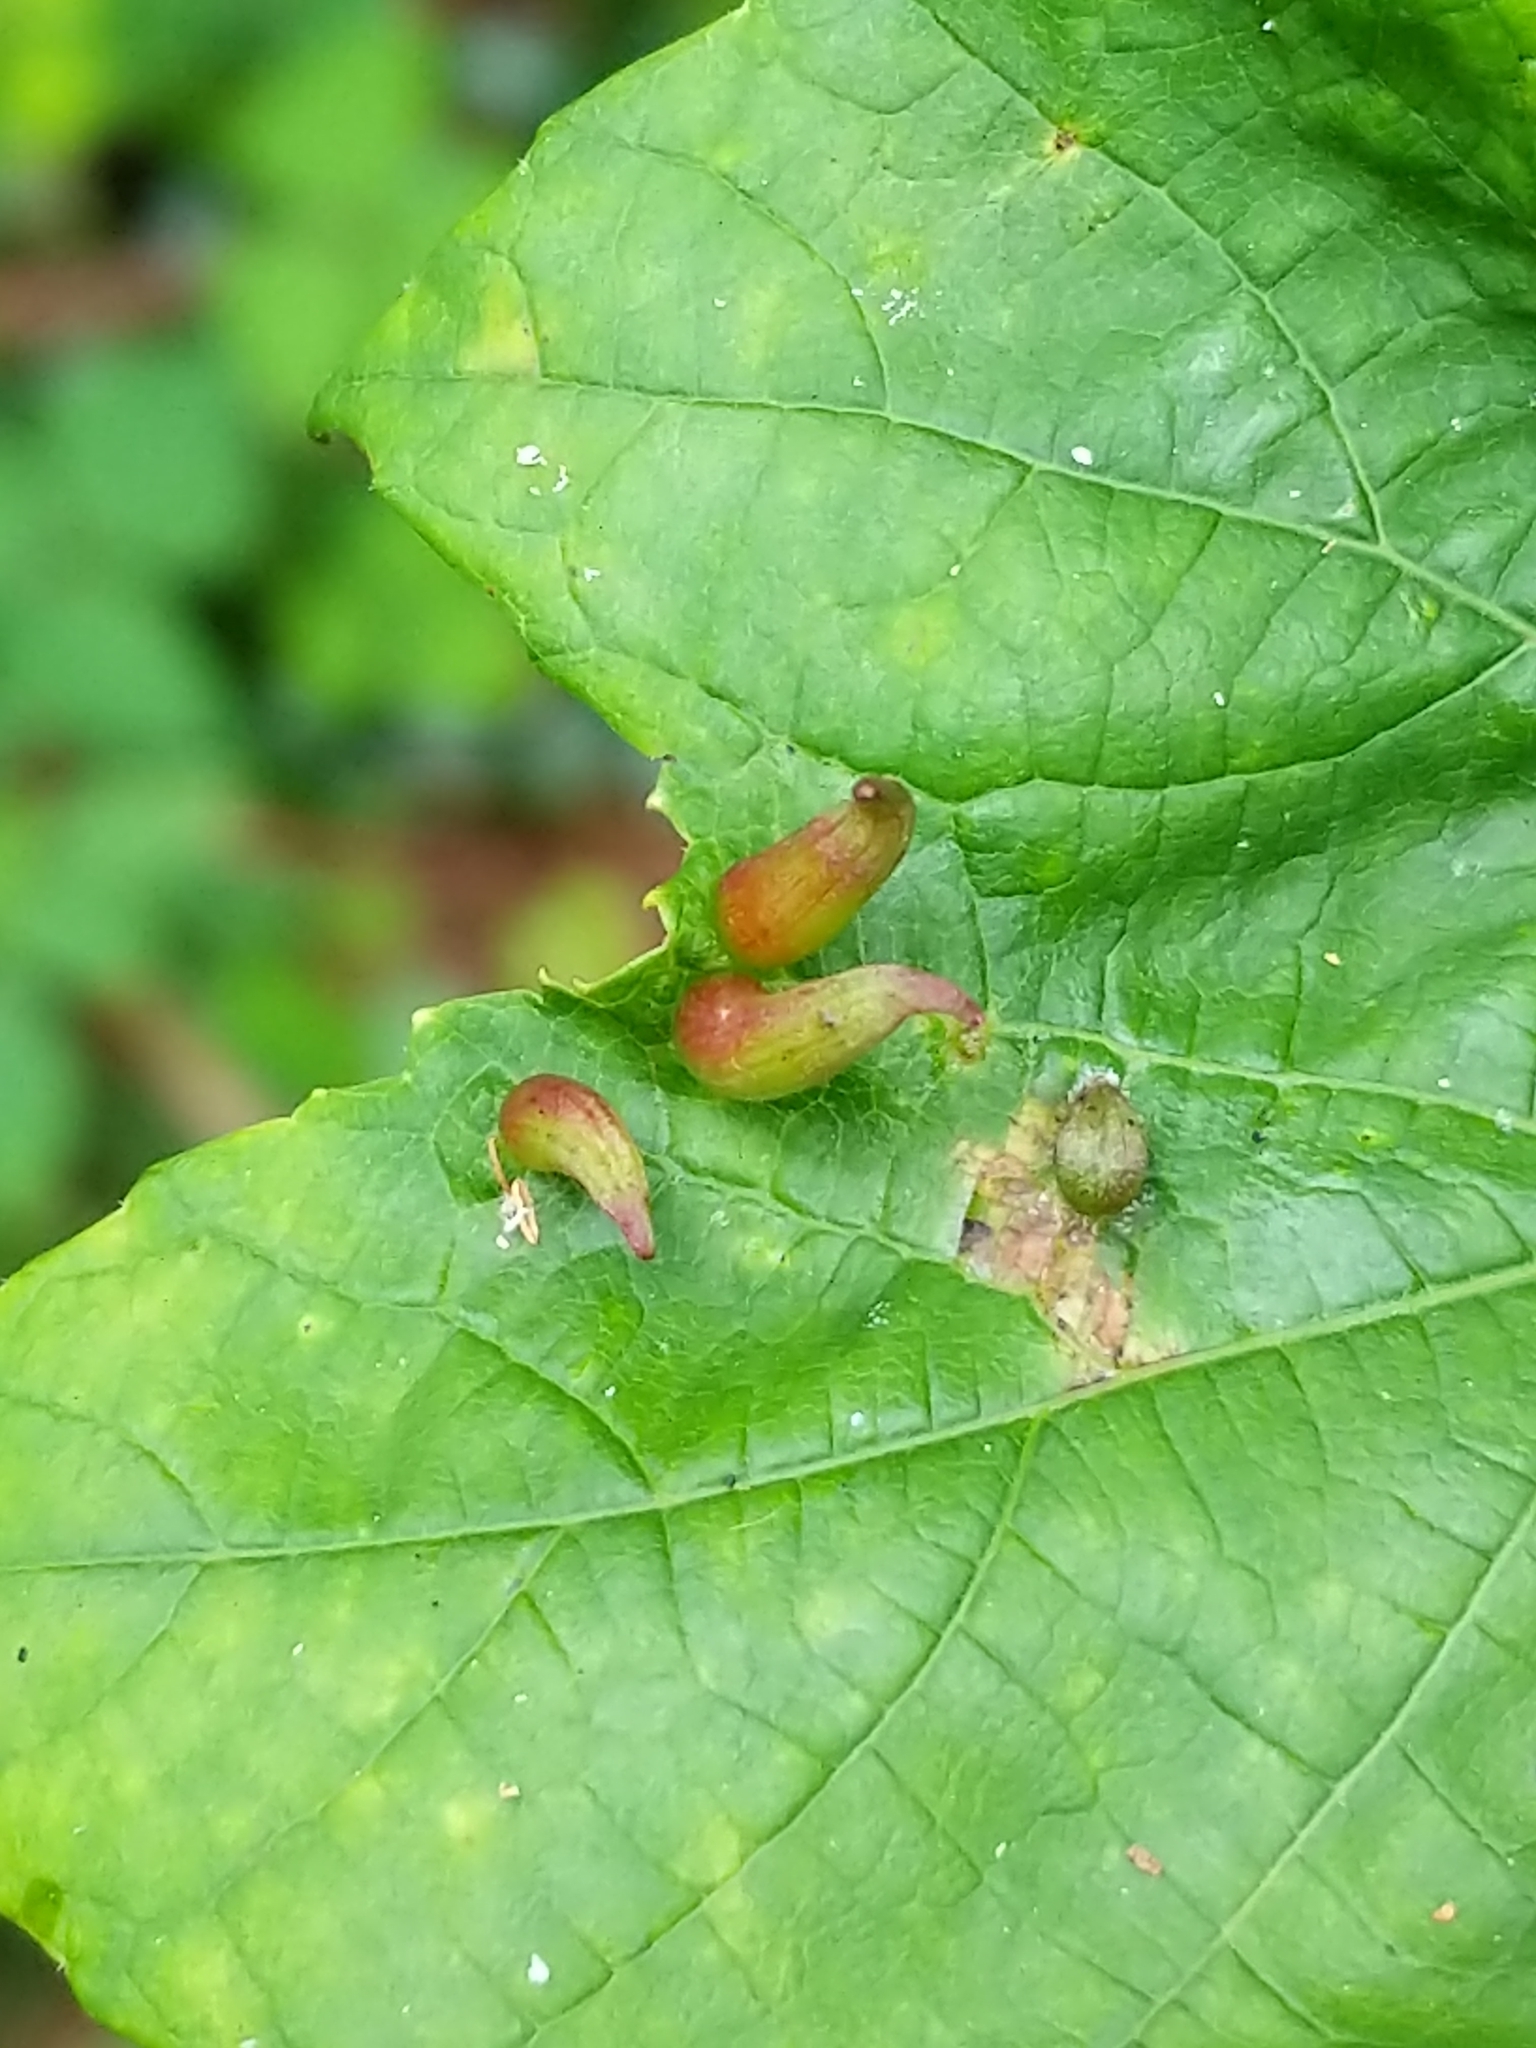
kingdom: Animalia
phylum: Arthropoda
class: Insecta
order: Diptera
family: Cecidomyiidae
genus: Ampelomyia
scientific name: Ampelomyia viticola
